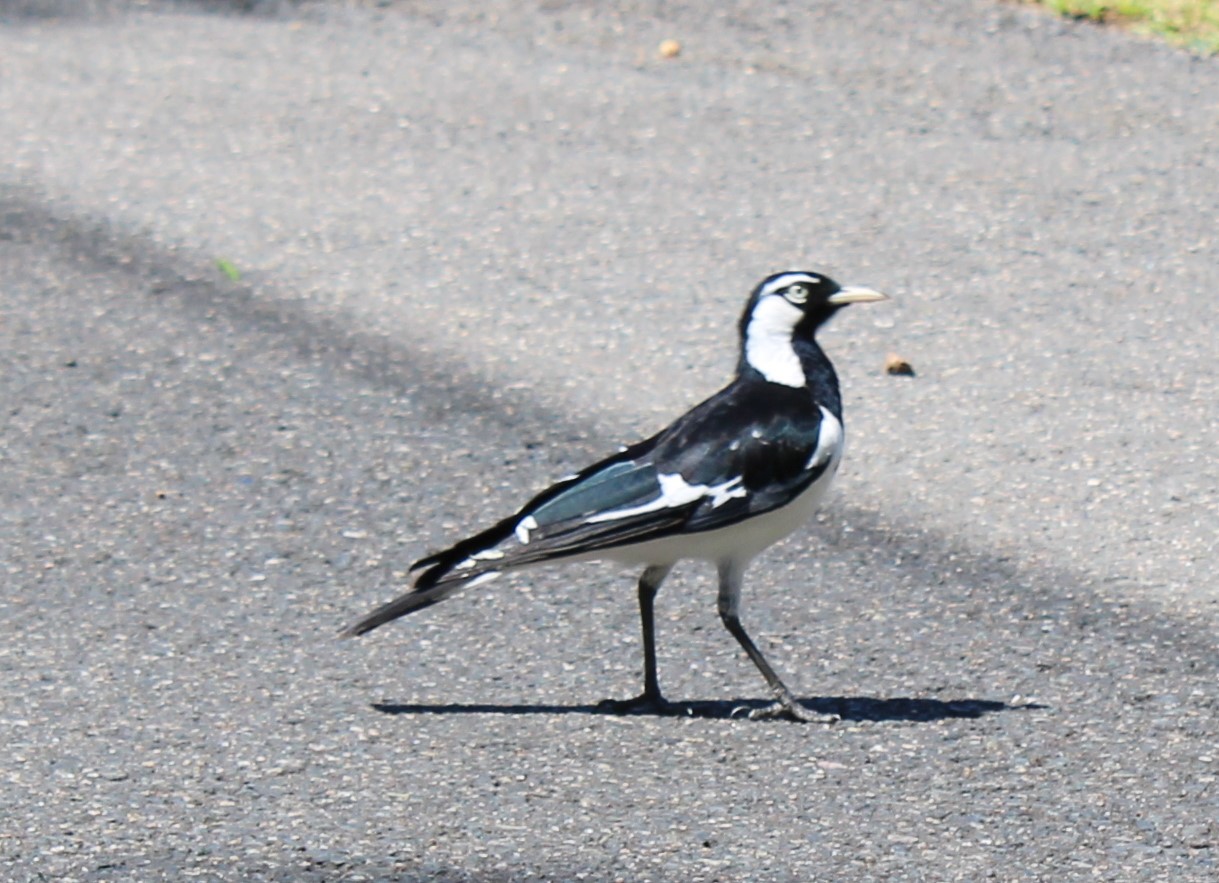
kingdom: Animalia
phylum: Chordata
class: Aves
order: Passeriformes
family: Monarchidae
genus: Grallina
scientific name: Grallina cyanoleuca
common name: Magpie-lark
